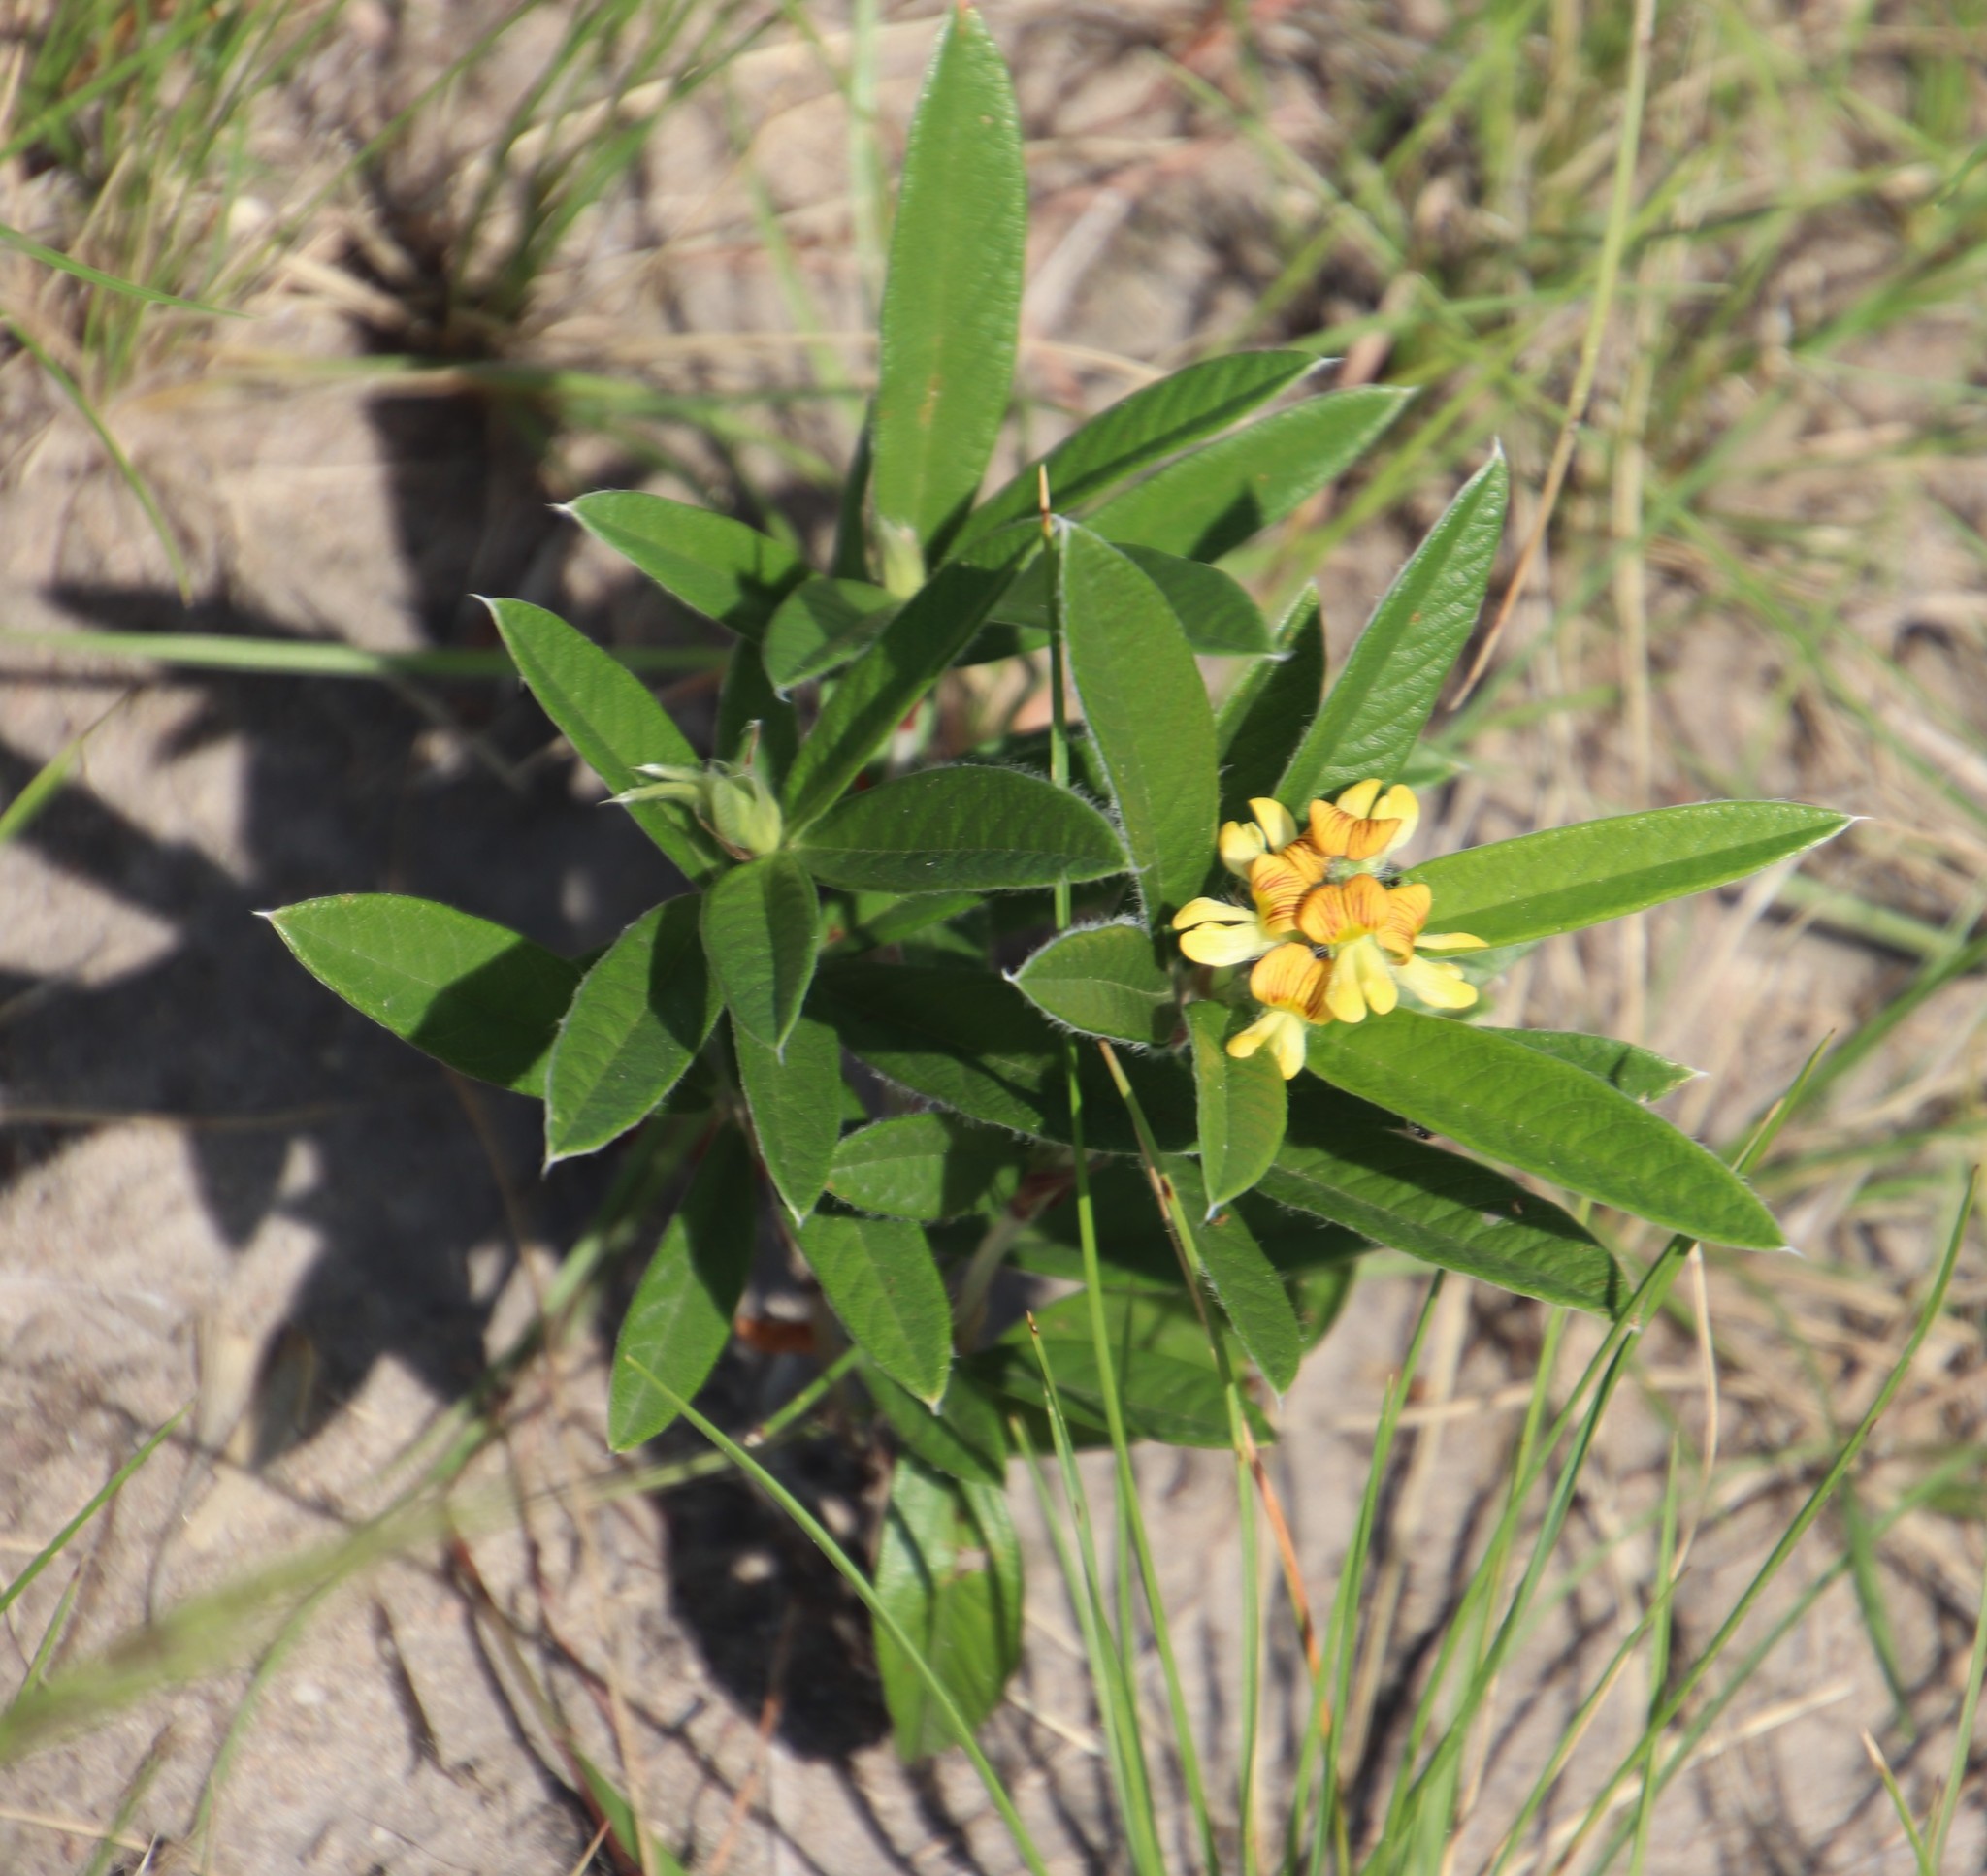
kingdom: Plantae
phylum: Tracheophyta
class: Magnoliopsida
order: Fabales
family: Fabaceae
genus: Eriosema
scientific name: Eriosema salignum
